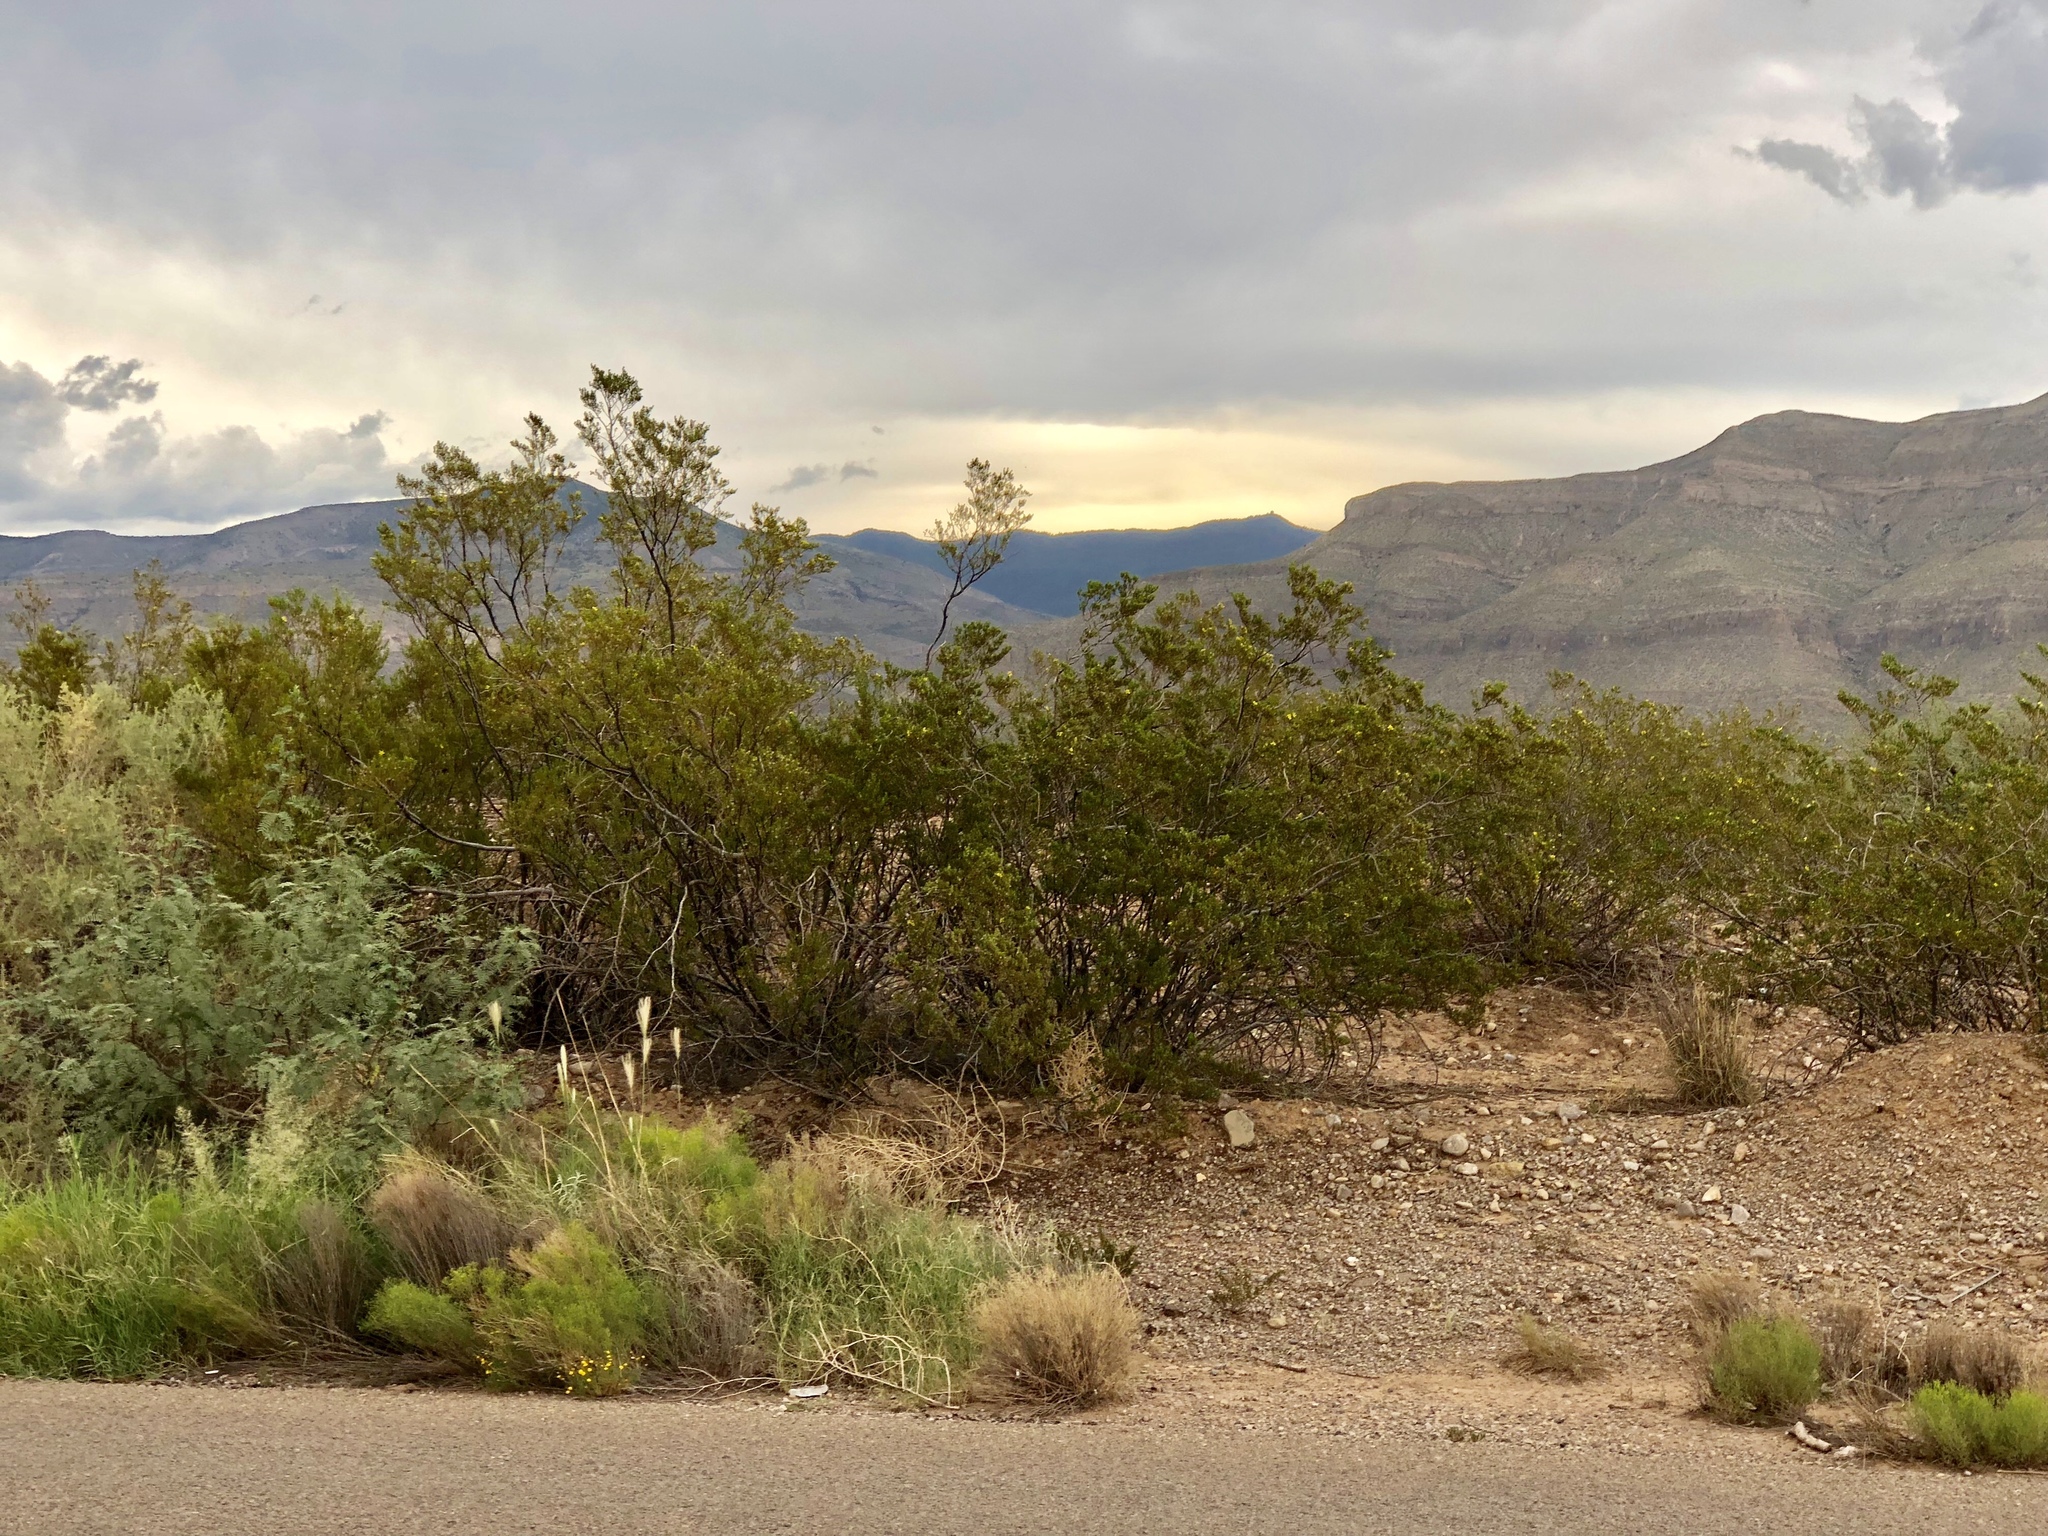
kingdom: Plantae
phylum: Tracheophyta
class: Magnoliopsida
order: Zygophyllales
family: Zygophyllaceae
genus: Larrea
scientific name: Larrea tridentata
